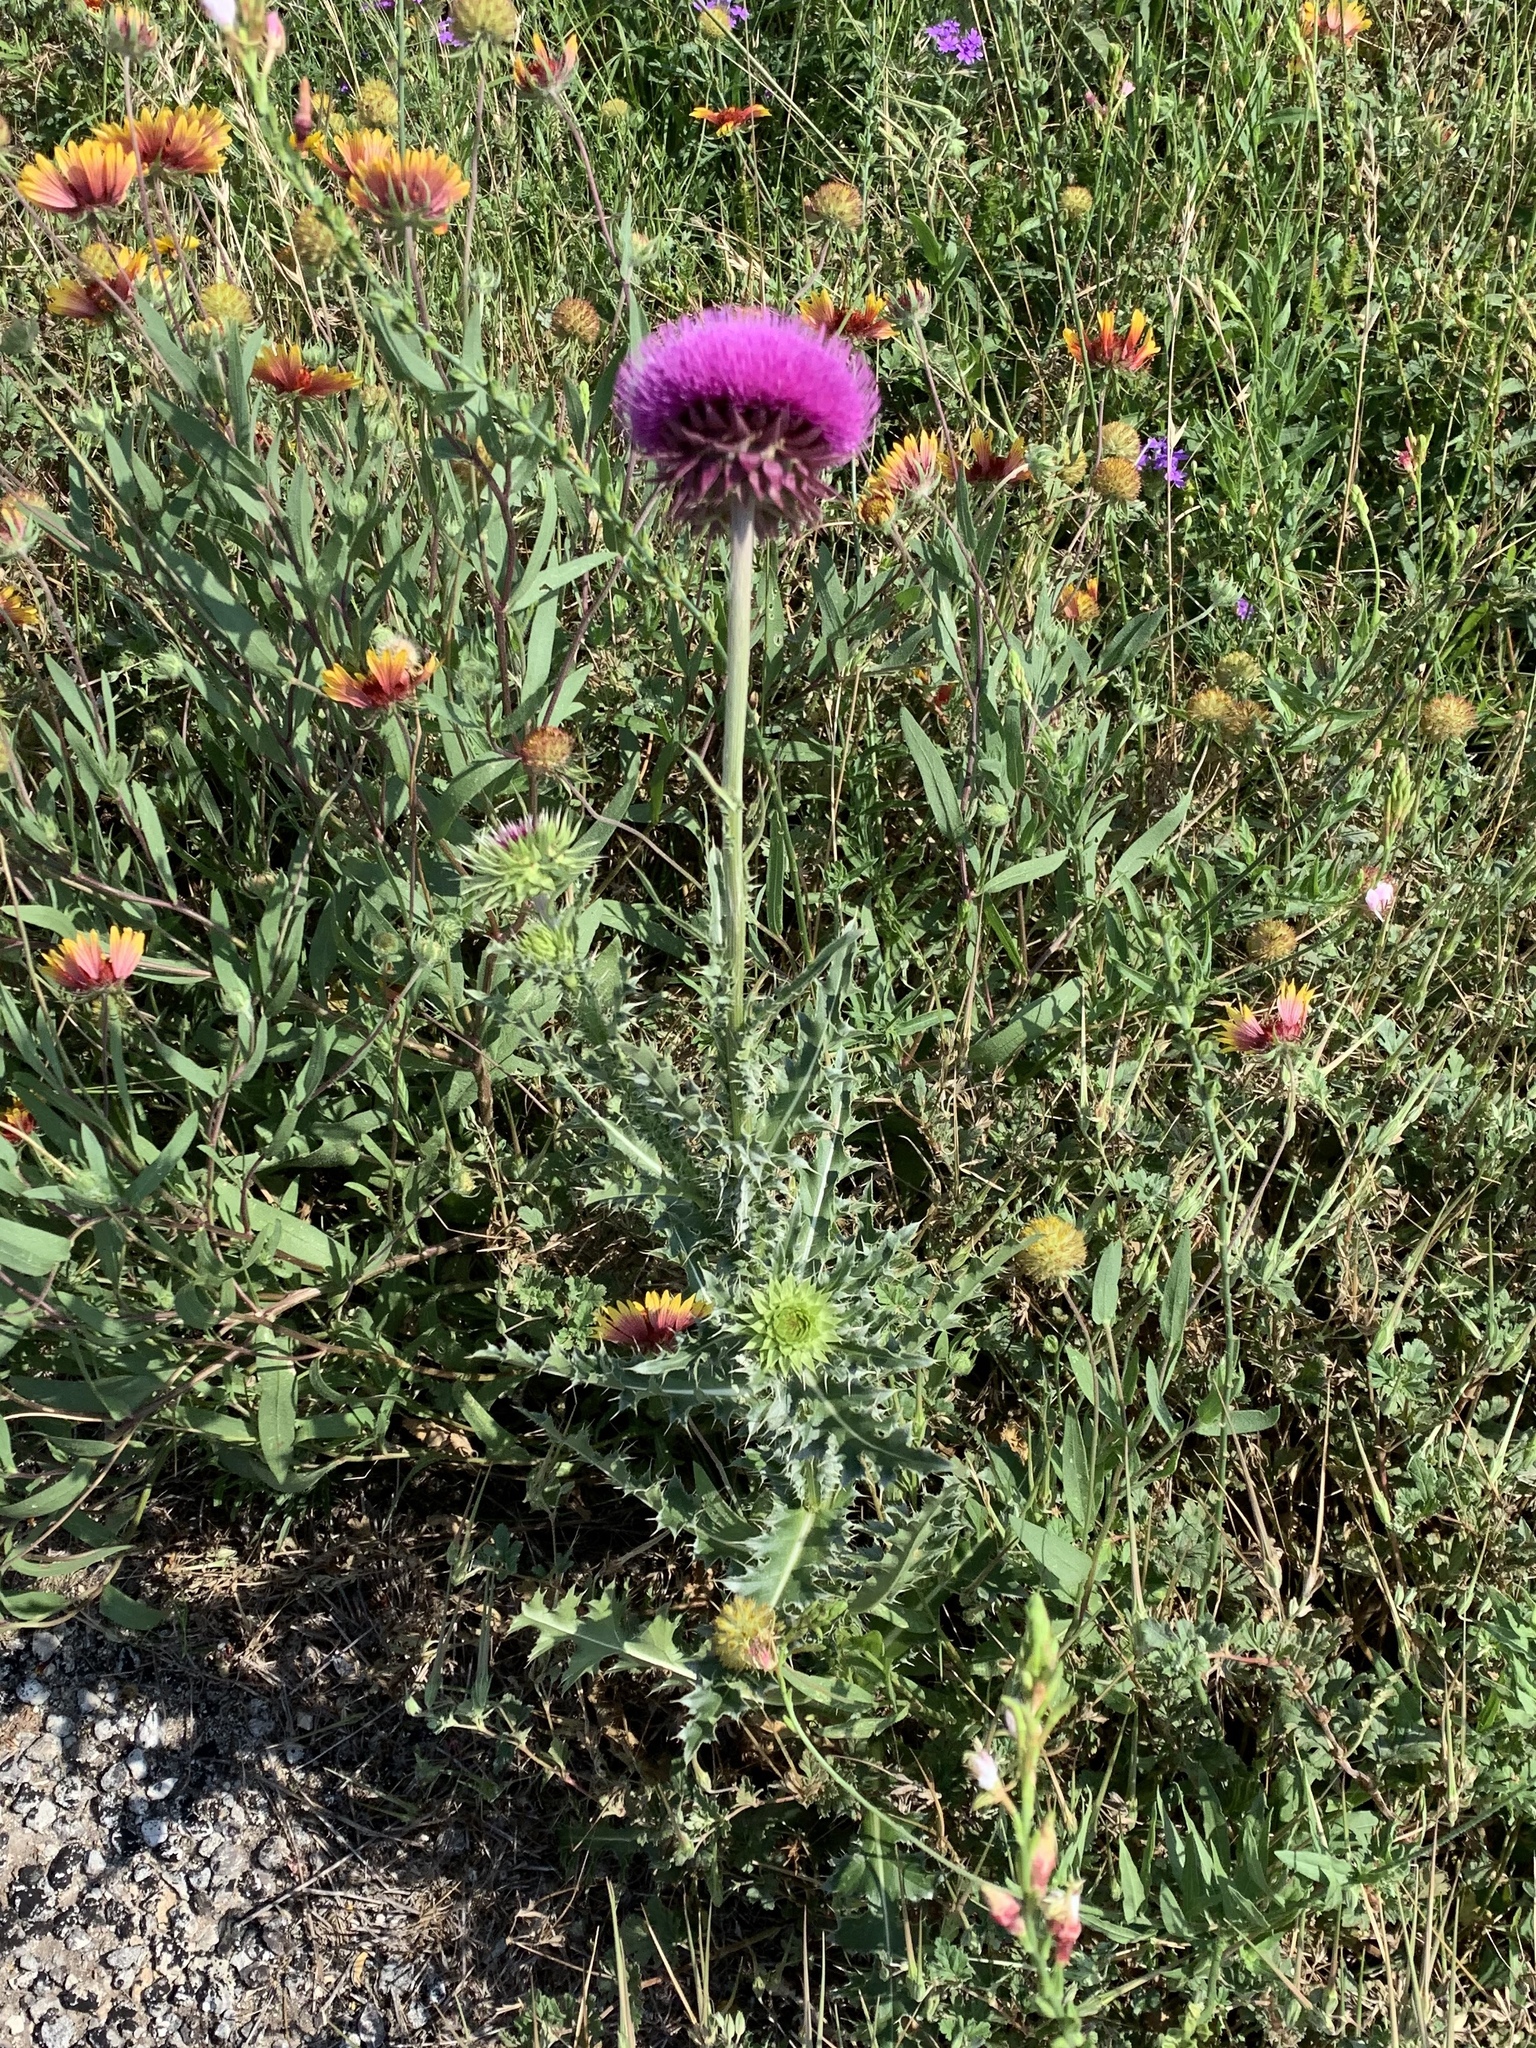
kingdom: Plantae
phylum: Tracheophyta
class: Magnoliopsida
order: Asterales
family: Asteraceae
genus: Carduus
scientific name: Carduus nutans
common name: Musk thistle
